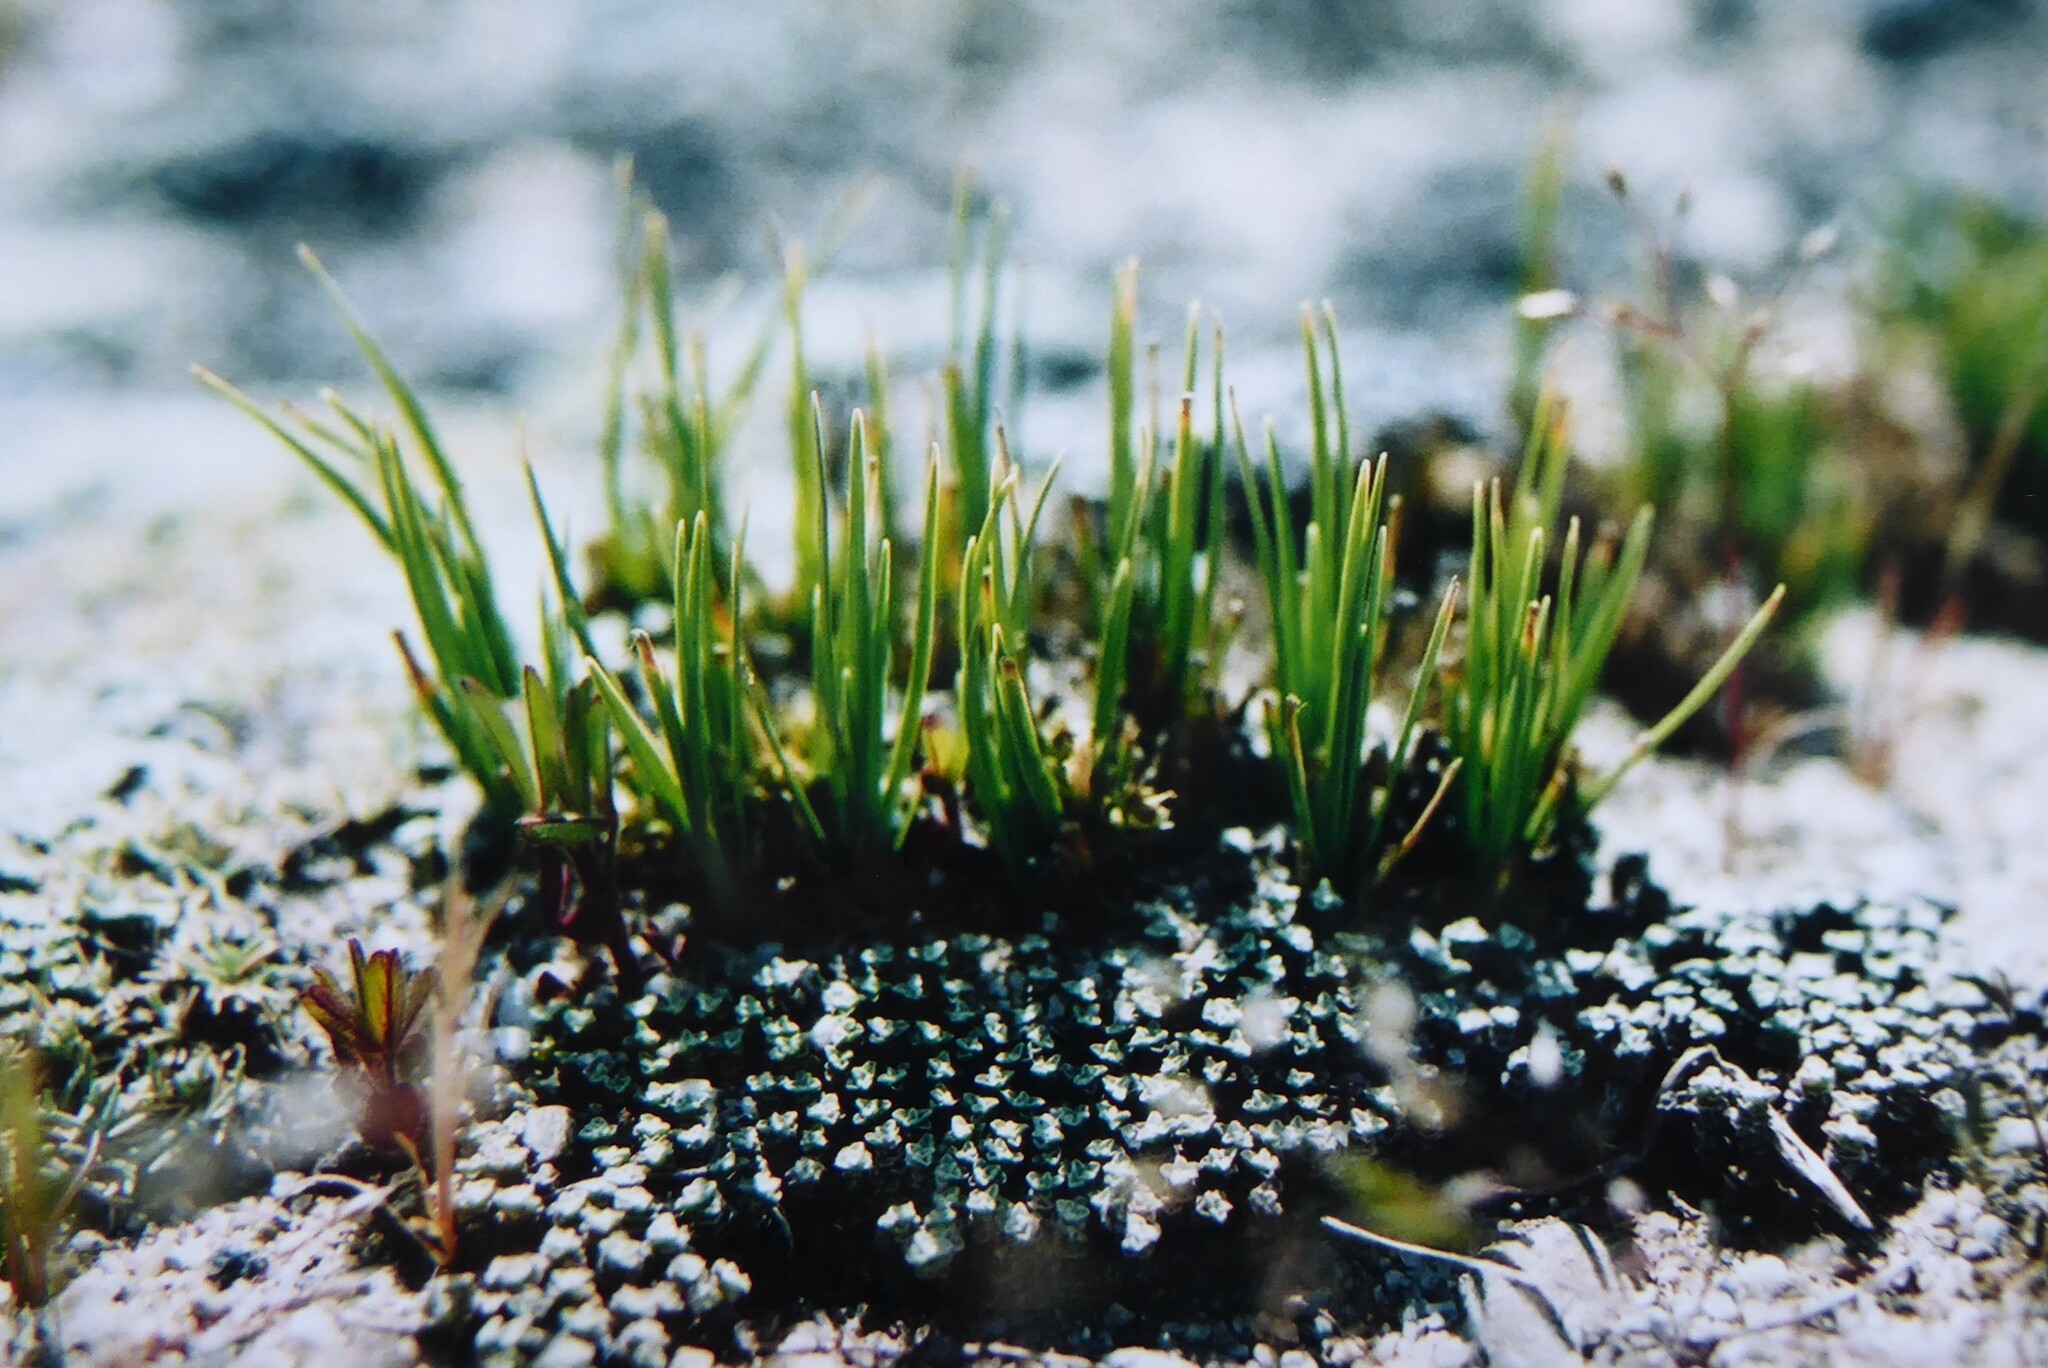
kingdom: Plantae
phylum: Tracheophyta
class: Liliopsida
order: Poales
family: Cyperaceae
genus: Carex
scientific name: Carex decurtata
